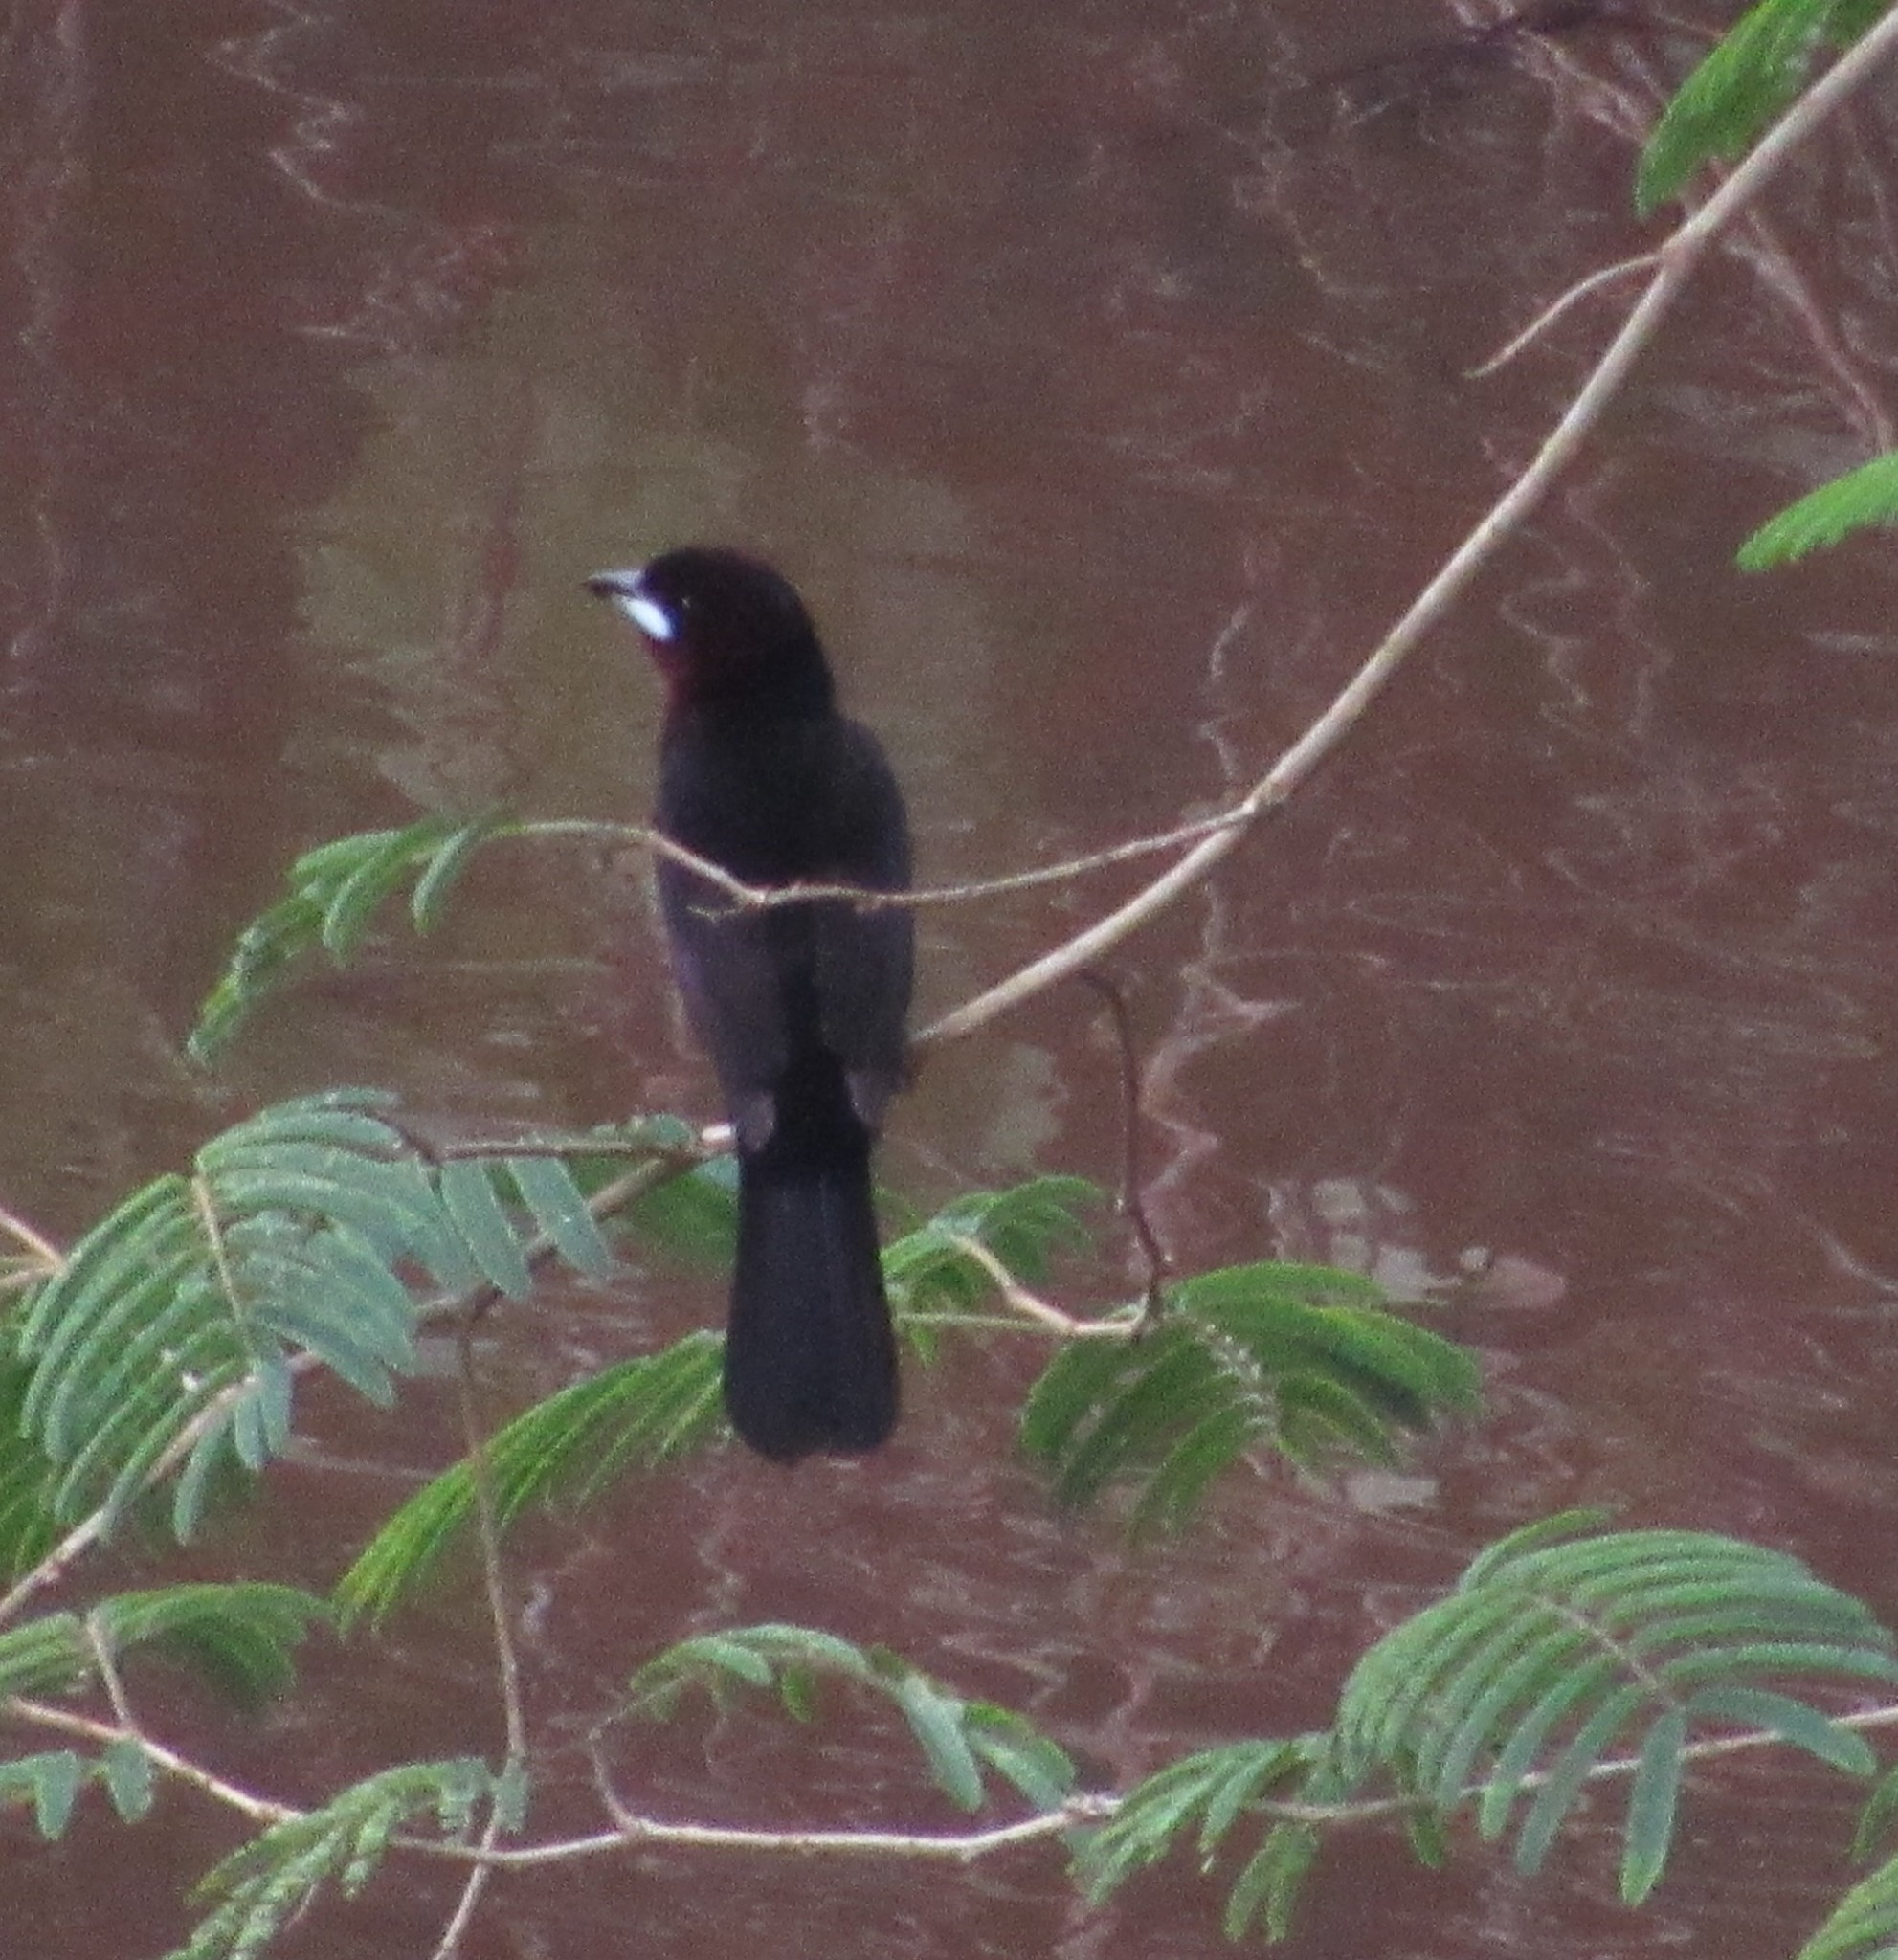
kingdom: Animalia
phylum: Chordata
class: Aves
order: Passeriformes
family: Thraupidae
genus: Ramphocelus
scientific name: Ramphocelus carbo
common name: Silver-beaked tanager
